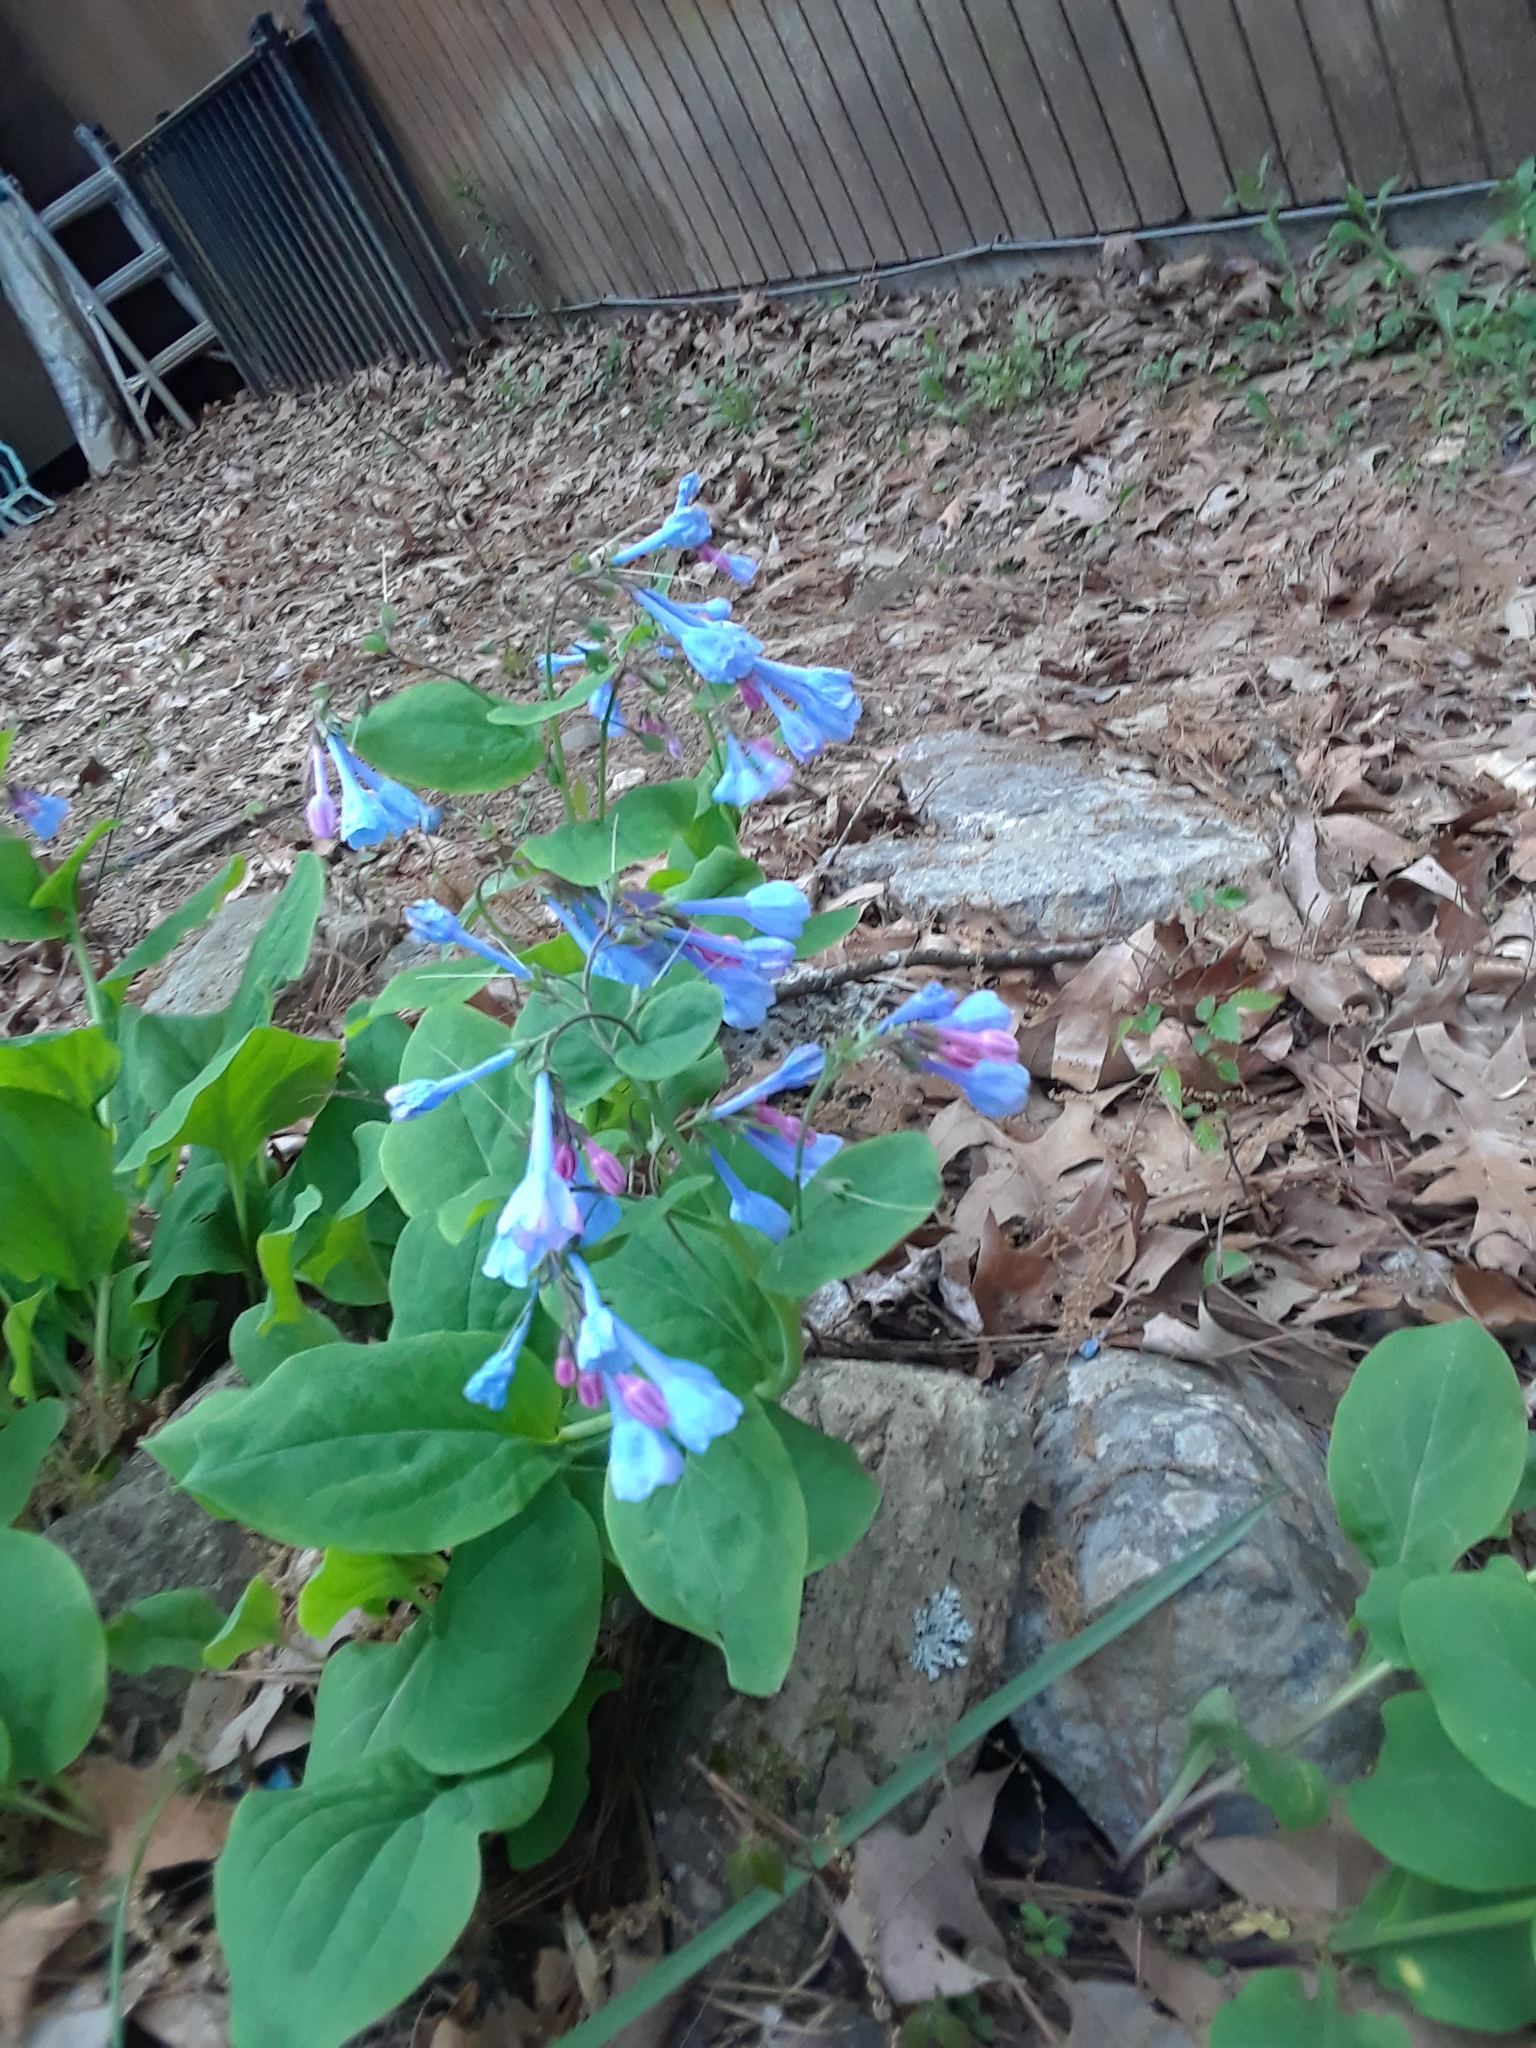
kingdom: Plantae
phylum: Tracheophyta
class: Magnoliopsida
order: Boraginales
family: Boraginaceae
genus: Mertensia
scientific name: Mertensia virginica
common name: Virginia bluebells
